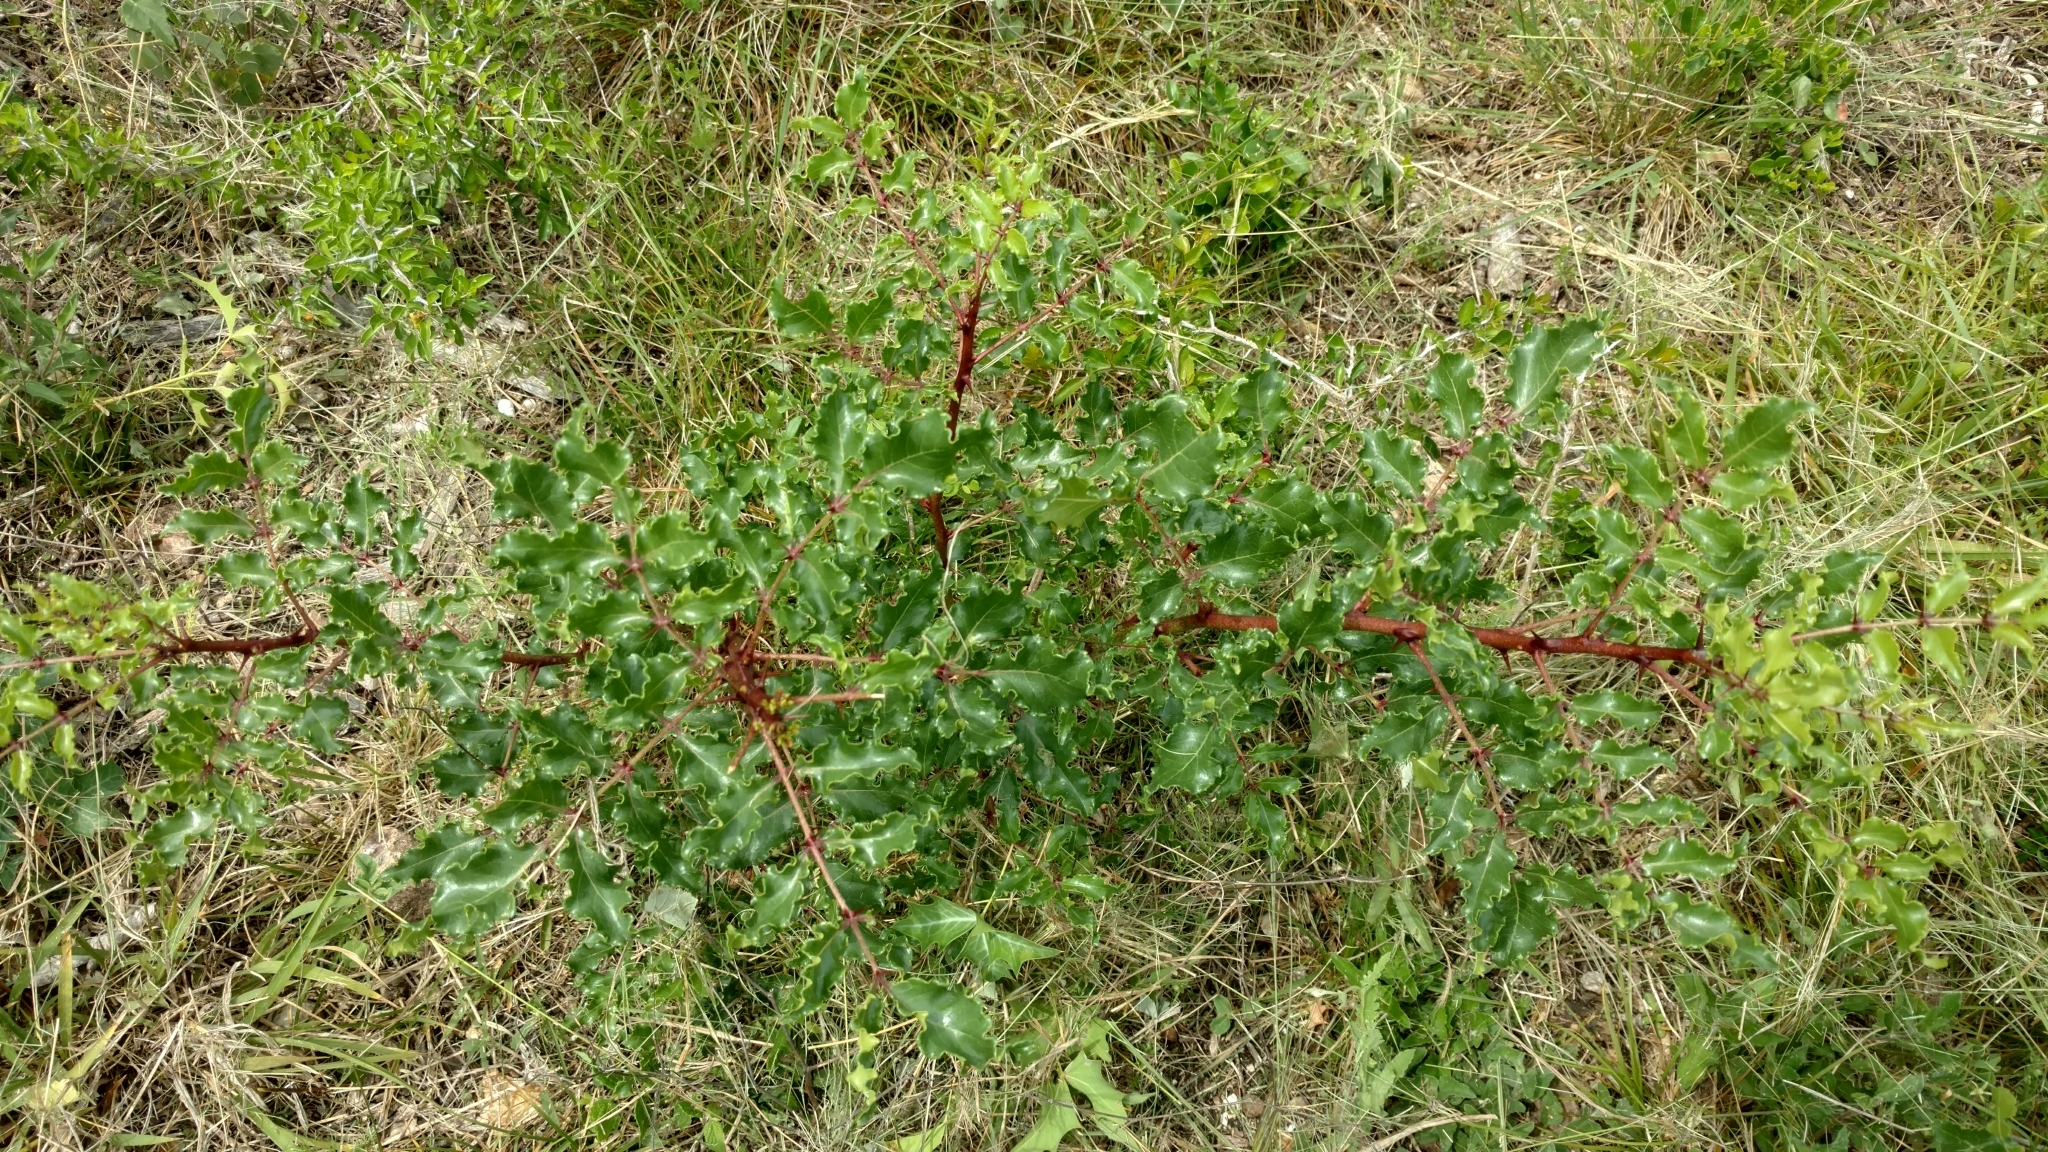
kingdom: Plantae
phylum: Tracheophyta
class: Magnoliopsida
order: Sapindales
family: Rutaceae
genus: Zanthoxylum
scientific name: Zanthoxylum clava-herculis
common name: Hercules'-club
